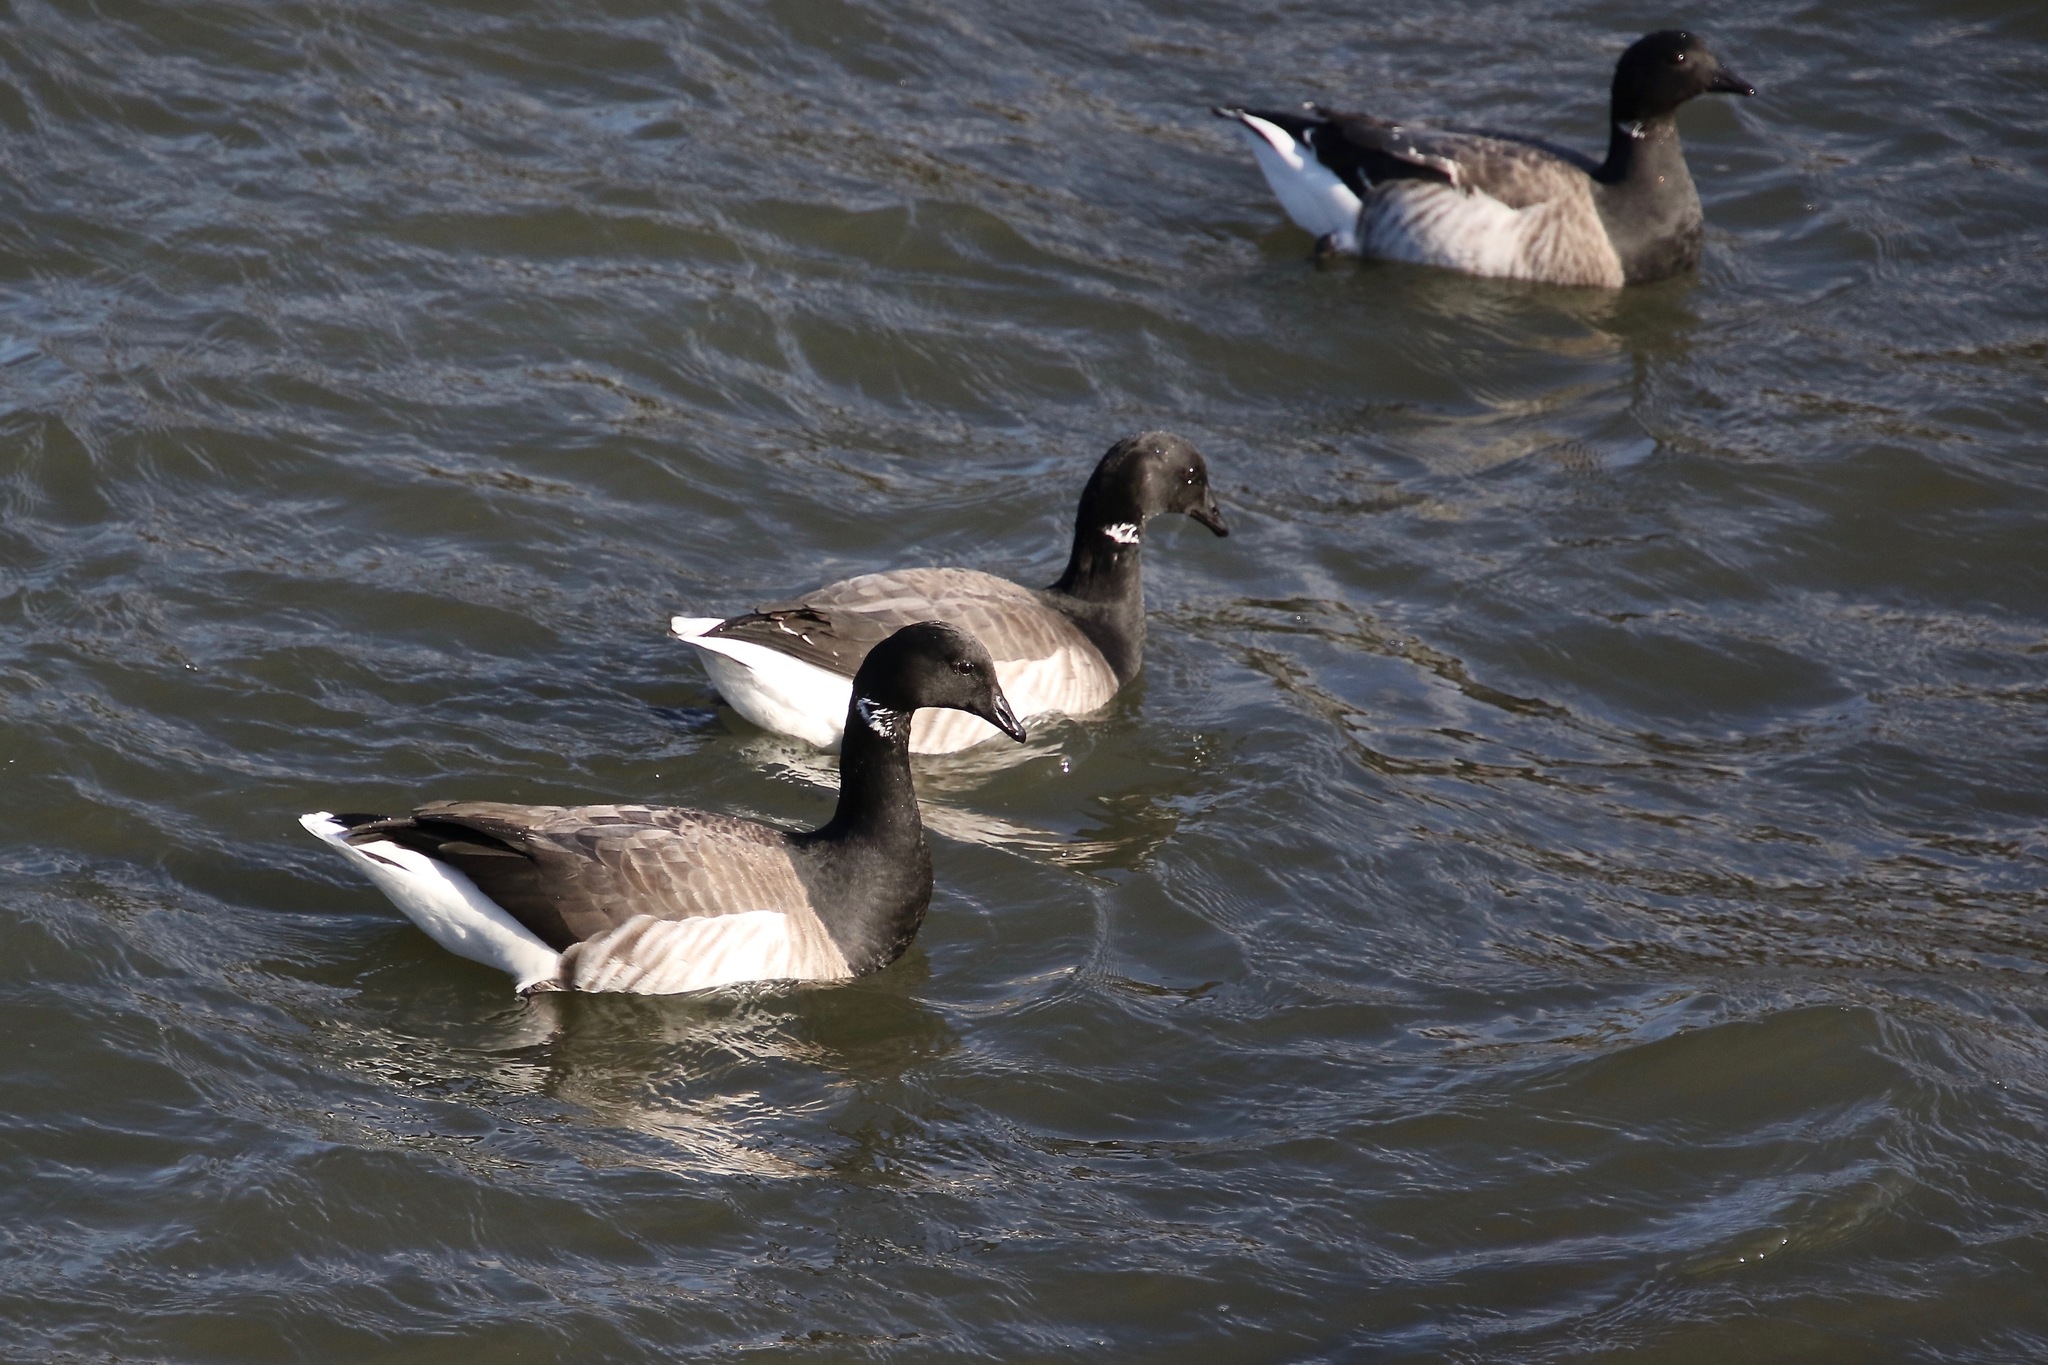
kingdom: Animalia
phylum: Chordata
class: Aves
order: Anseriformes
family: Anatidae
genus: Branta
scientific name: Branta bernicla
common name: Brant goose
